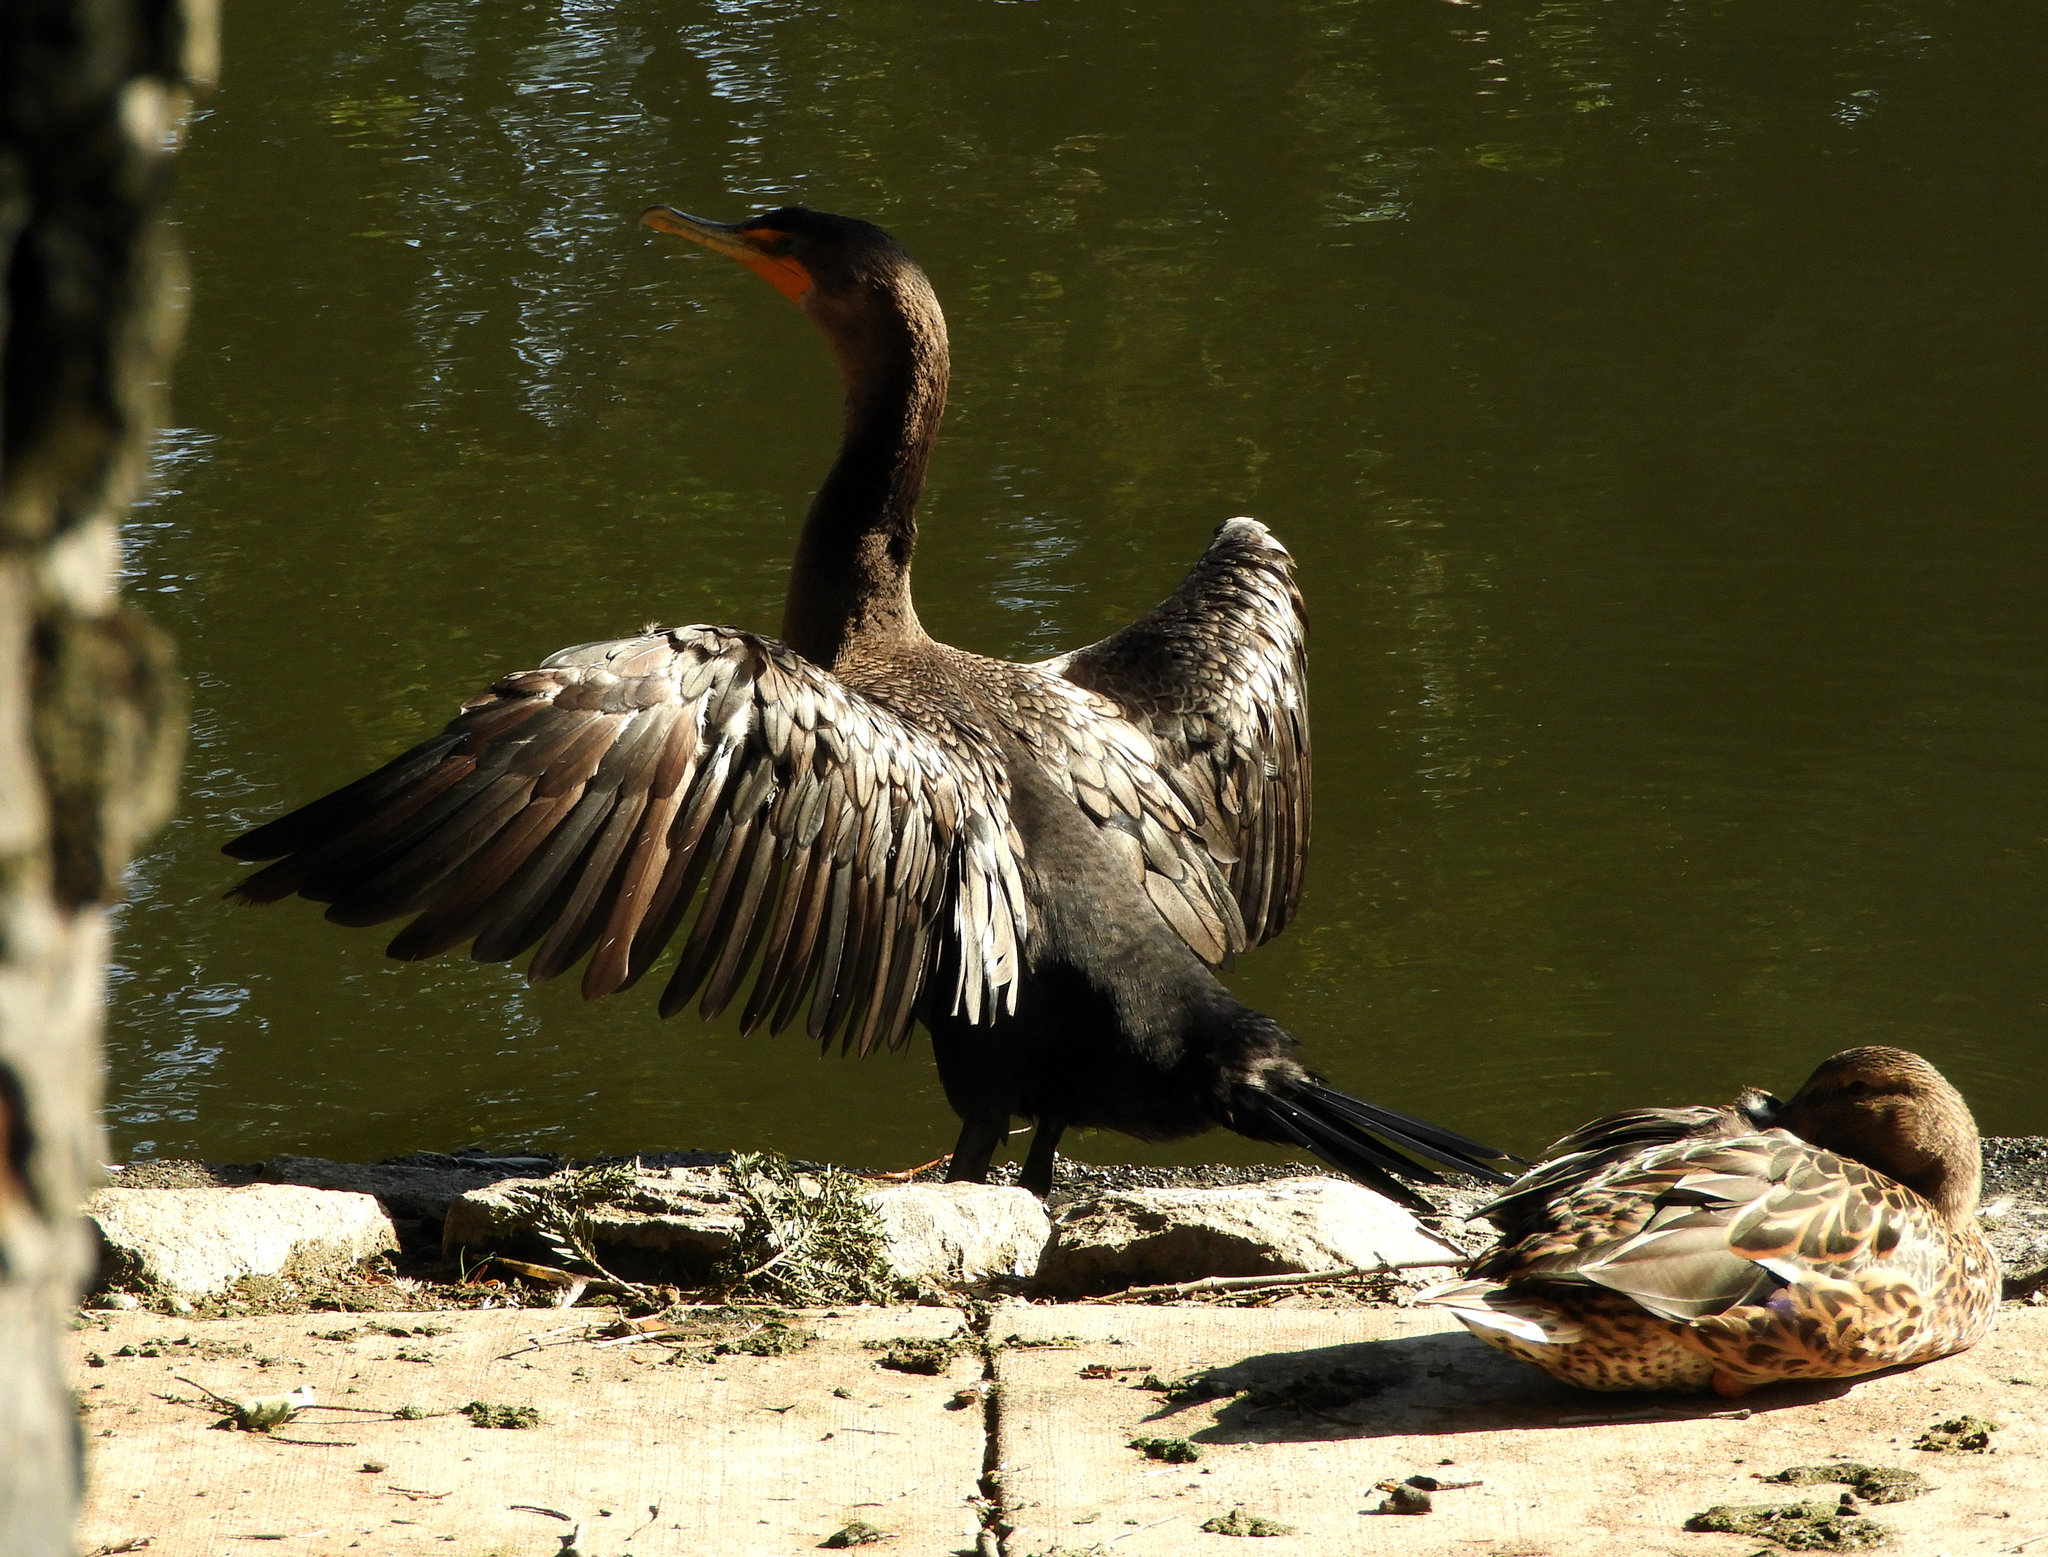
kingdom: Animalia
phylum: Chordata
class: Aves
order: Suliformes
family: Phalacrocoracidae
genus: Phalacrocorax
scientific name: Phalacrocorax auritus
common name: Double-crested cormorant
